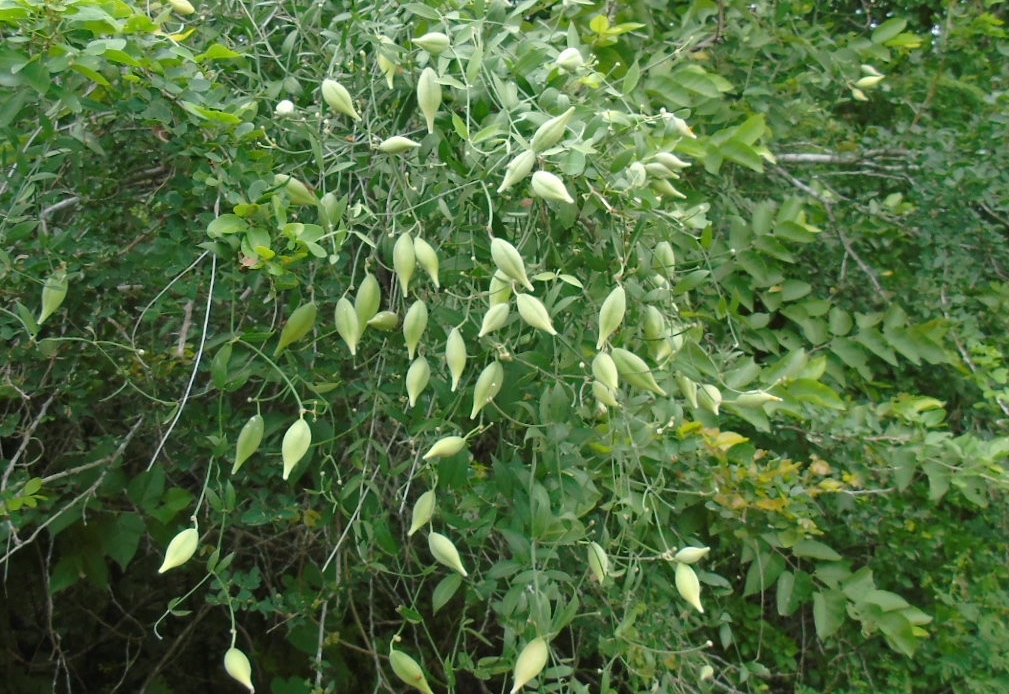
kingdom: Plantae
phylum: Tracheophyta
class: Magnoliopsida
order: Gentianales
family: Apocynaceae
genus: Funastrum
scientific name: Funastrum clausum
